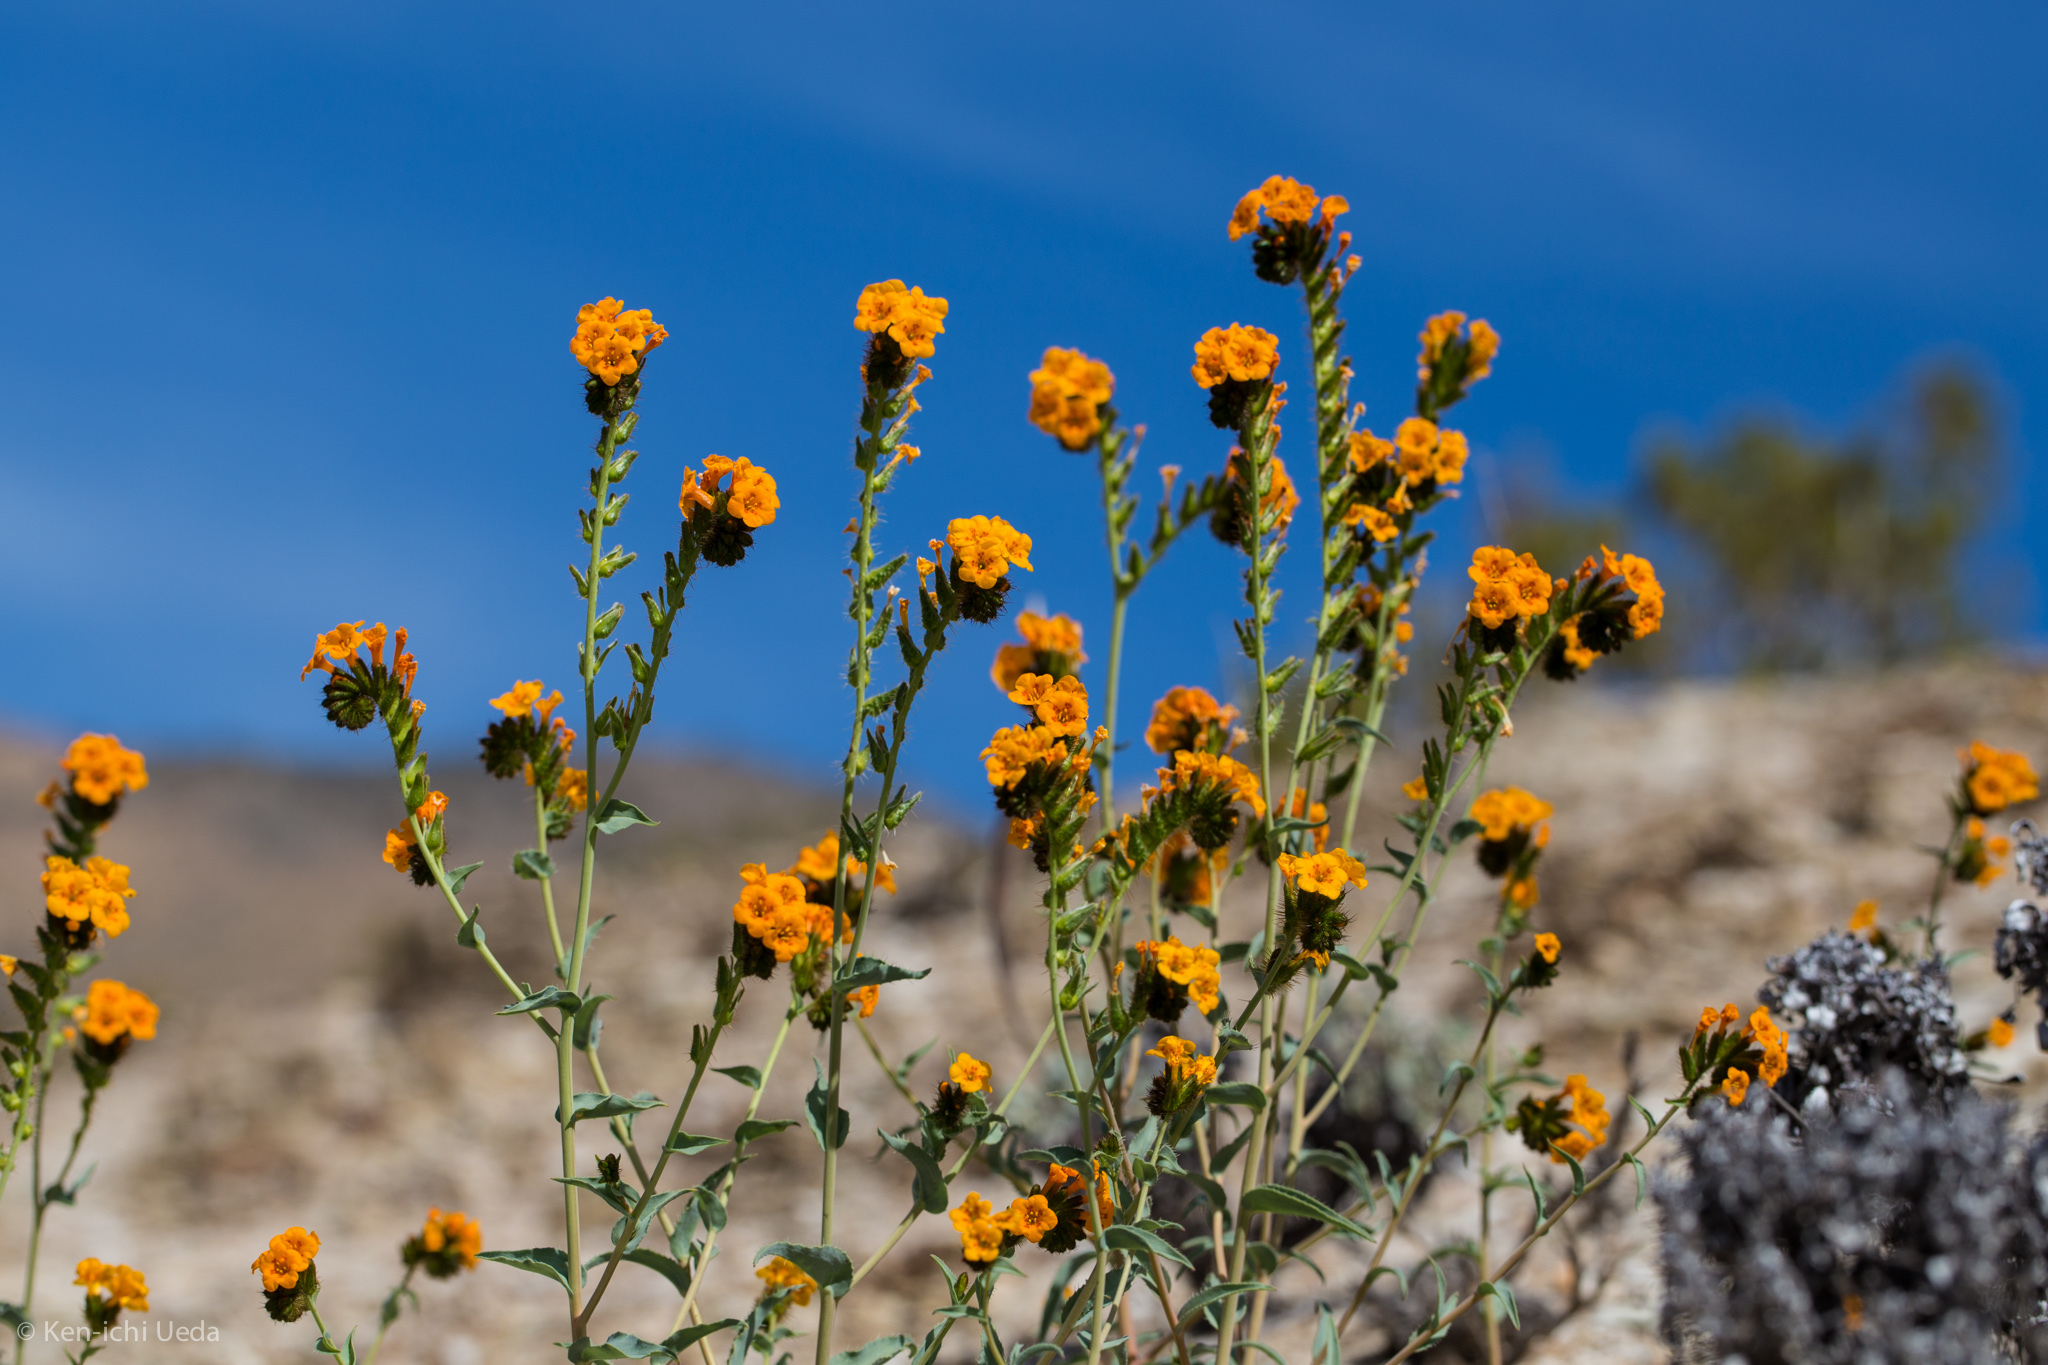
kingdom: Plantae
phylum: Tracheophyta
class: Magnoliopsida
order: Boraginales
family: Boraginaceae
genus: Amsinckia
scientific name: Amsinckia vernicosa
